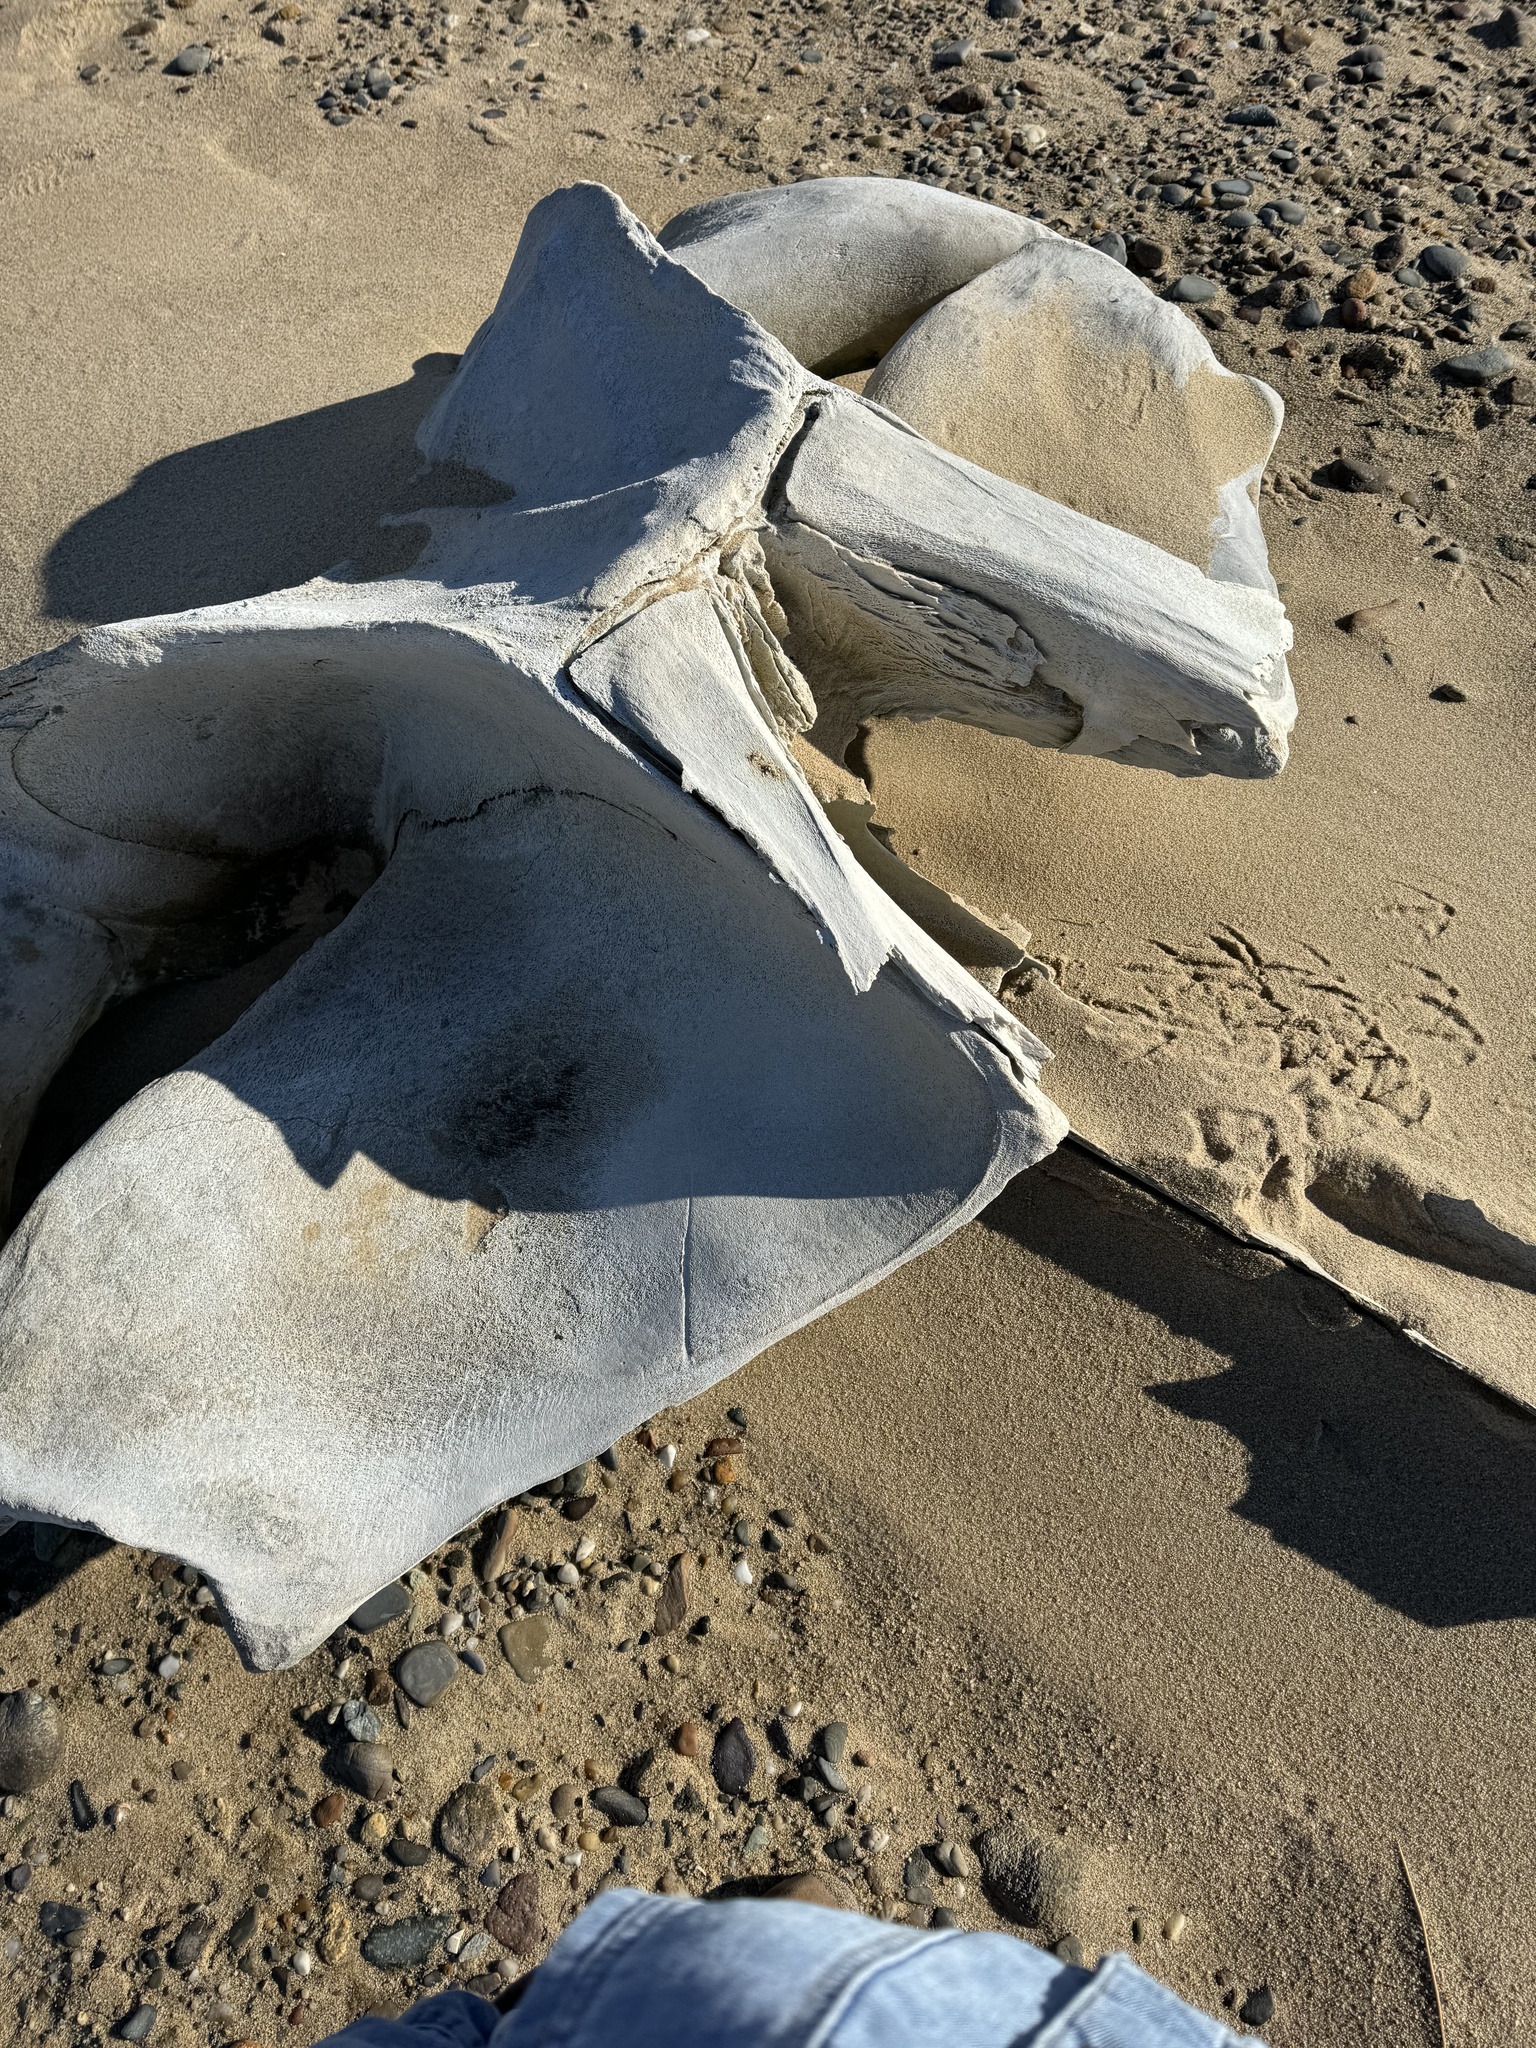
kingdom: Animalia
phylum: Chordata
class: Mammalia
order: Cetacea
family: Balaenopteridae
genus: Balaenoptera
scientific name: Balaenoptera physalus
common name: Fin whale
